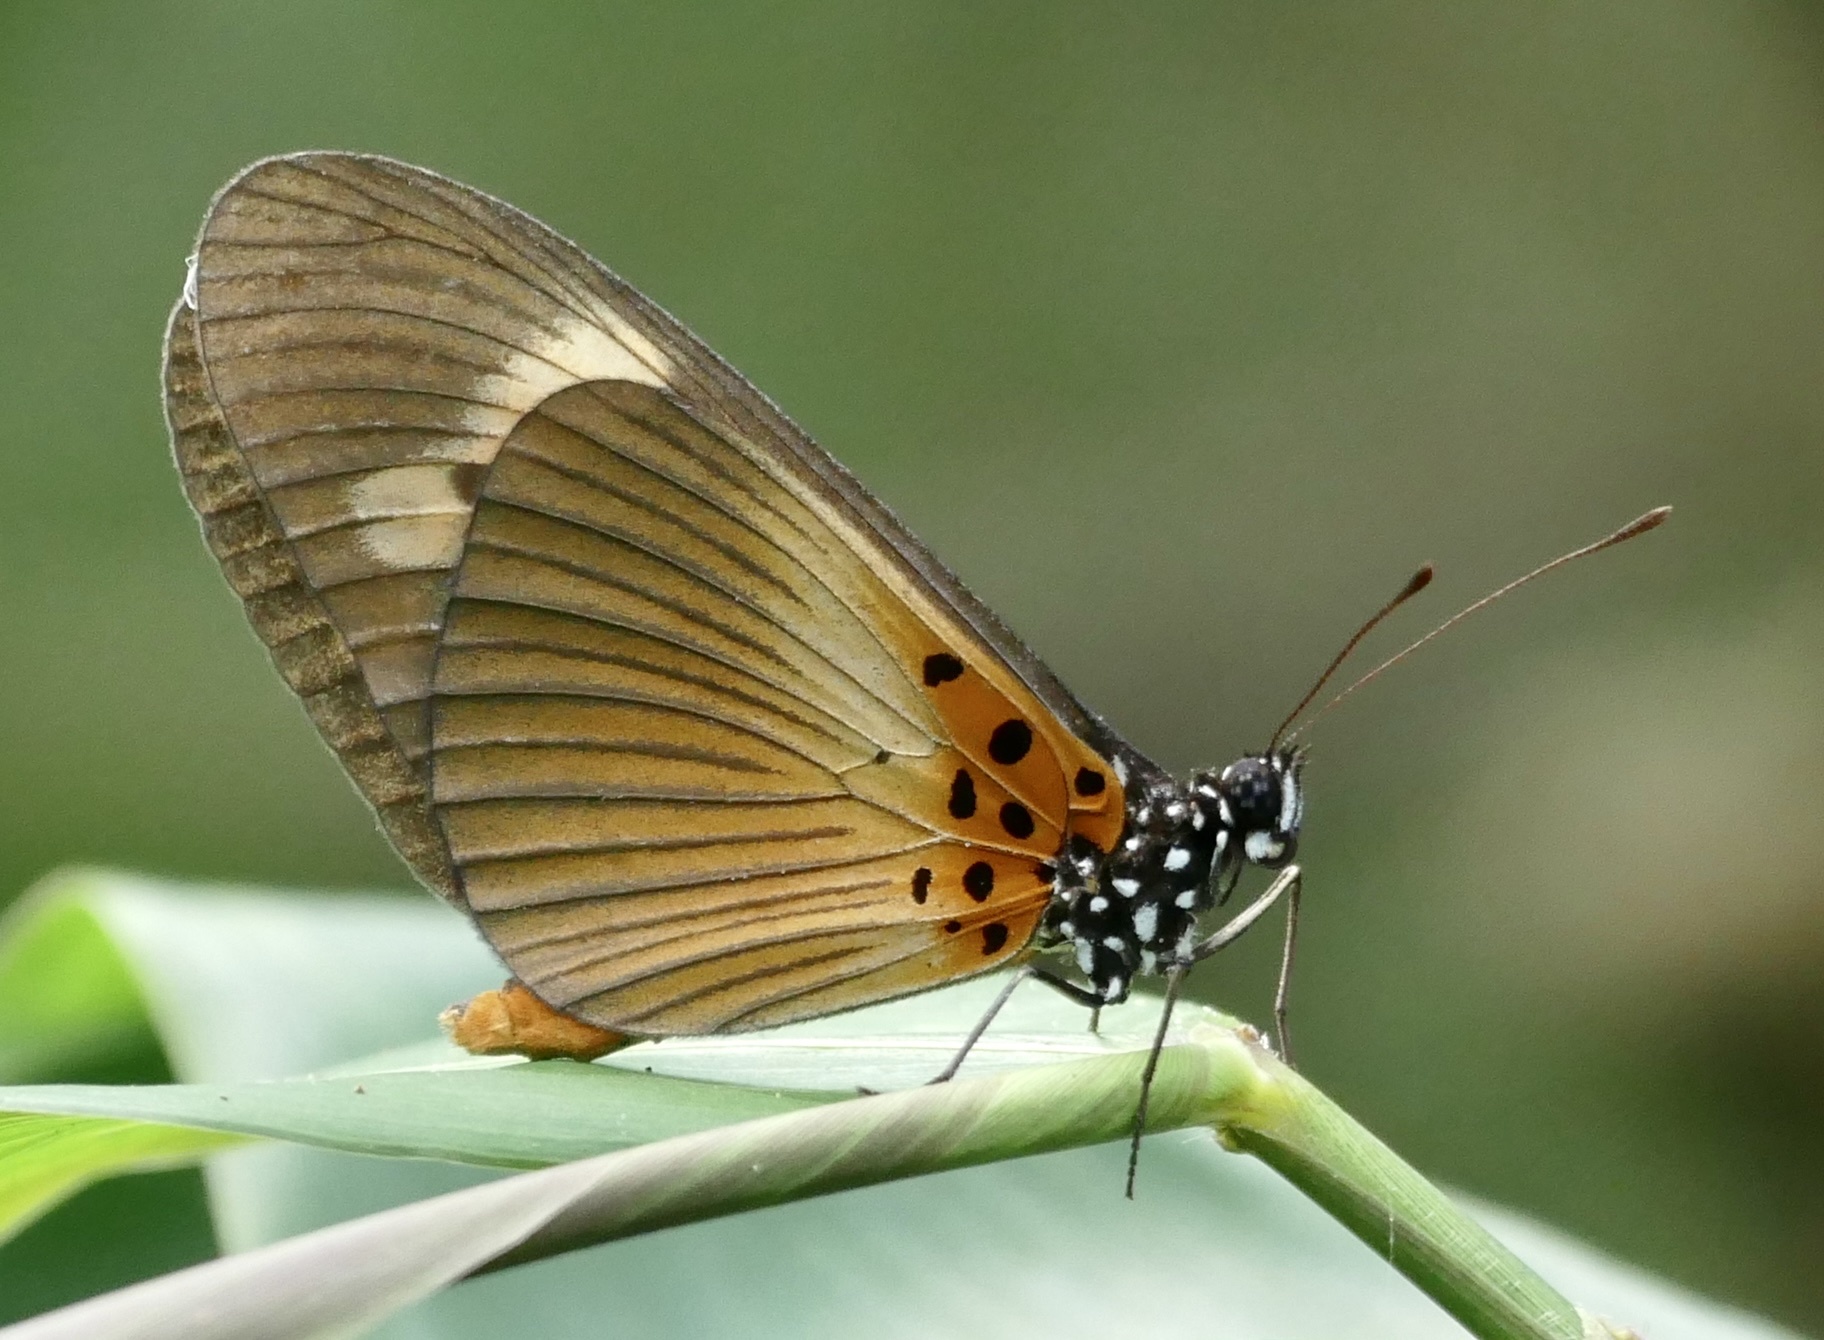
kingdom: Animalia
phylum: Arthropoda
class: Insecta
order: Lepidoptera
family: Nymphalidae
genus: Acraea
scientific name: Acraea Bematistes epaea
